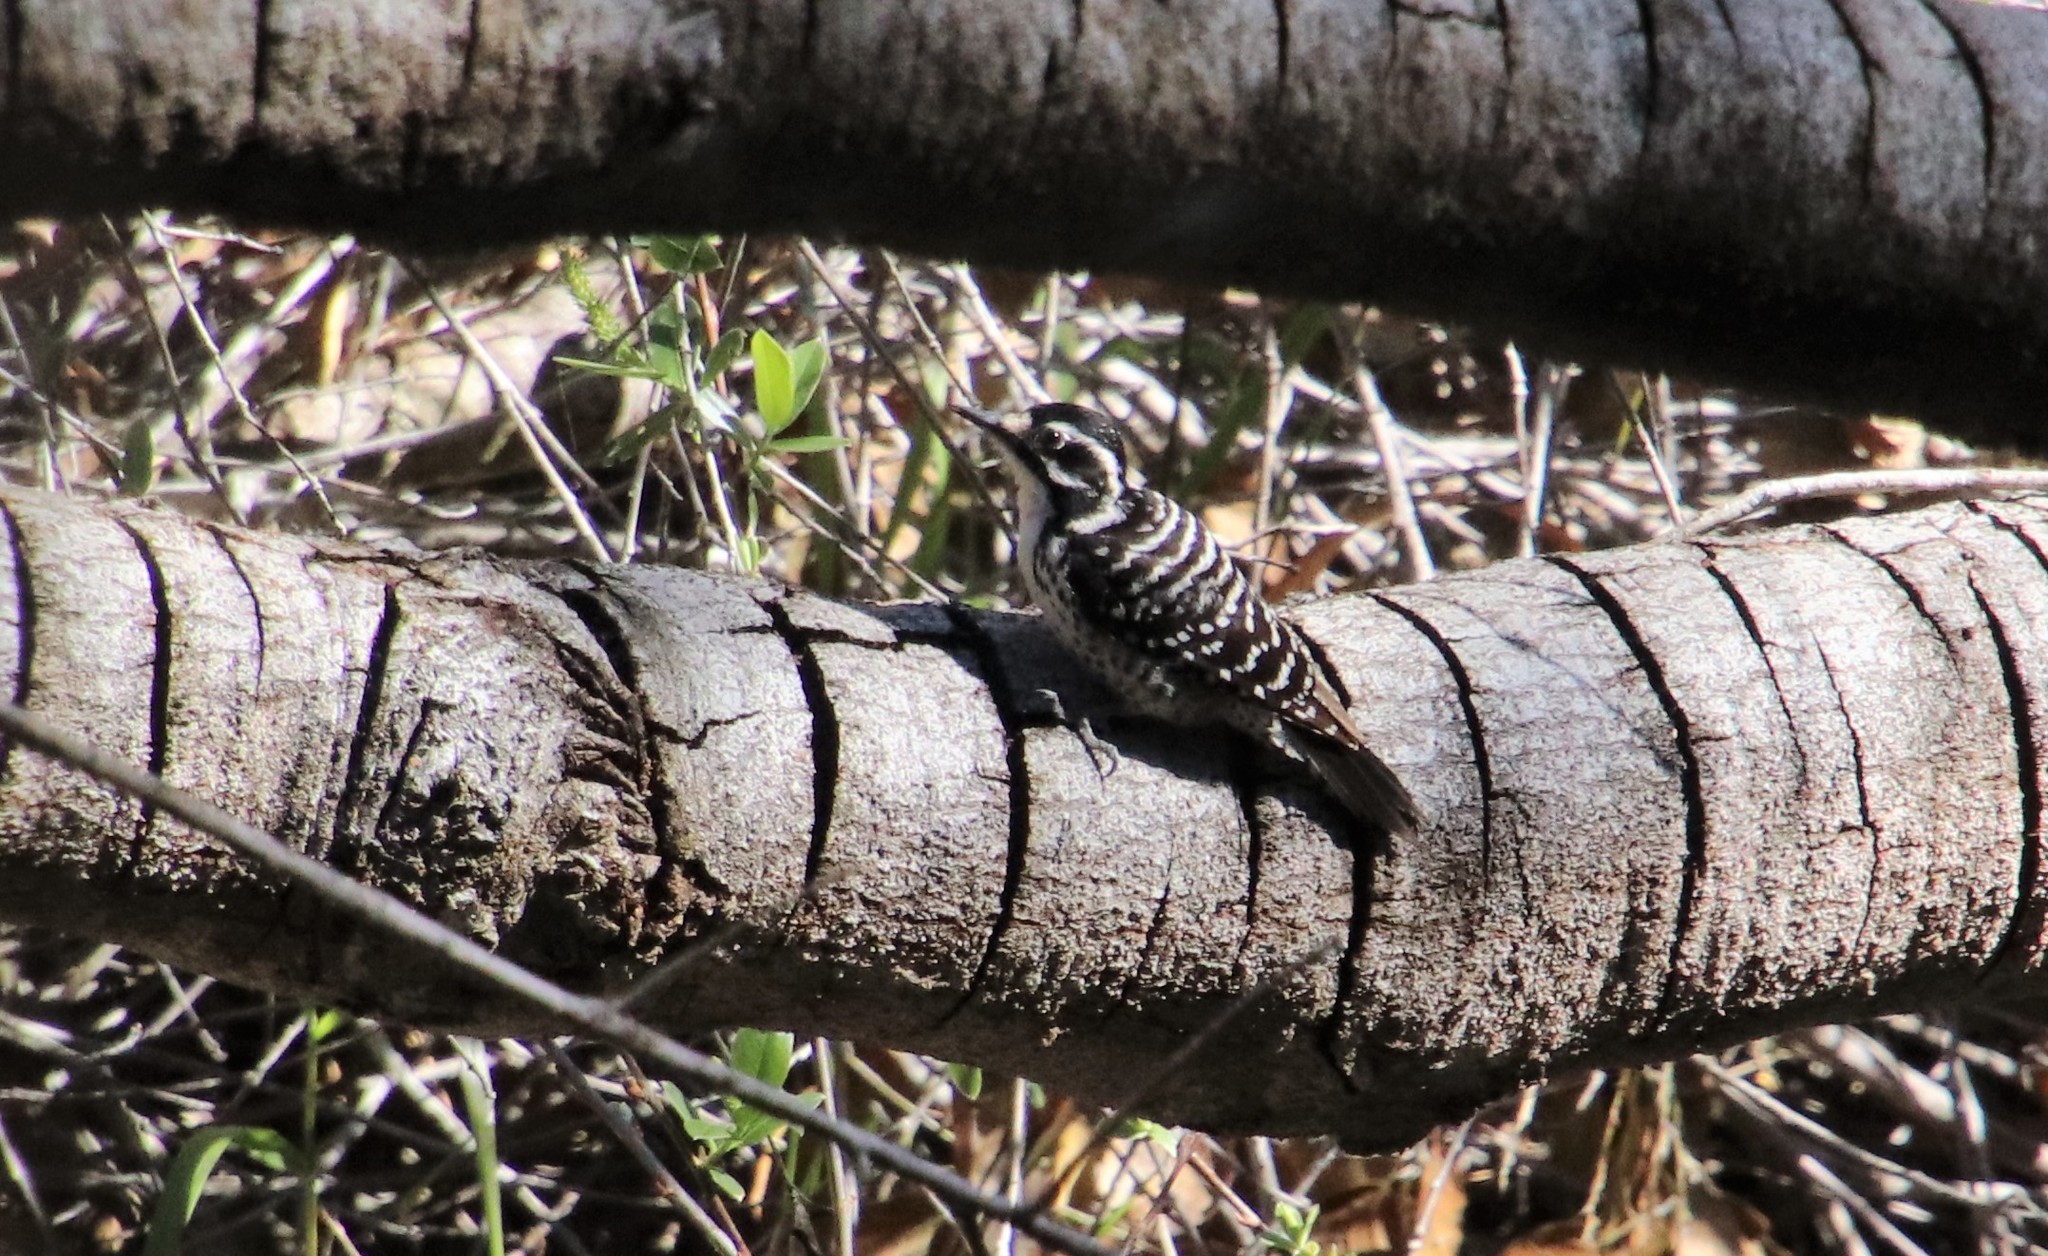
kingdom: Animalia
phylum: Chordata
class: Aves
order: Piciformes
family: Picidae
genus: Dryobates
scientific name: Dryobates nuttallii
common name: Nuttall's woodpecker
